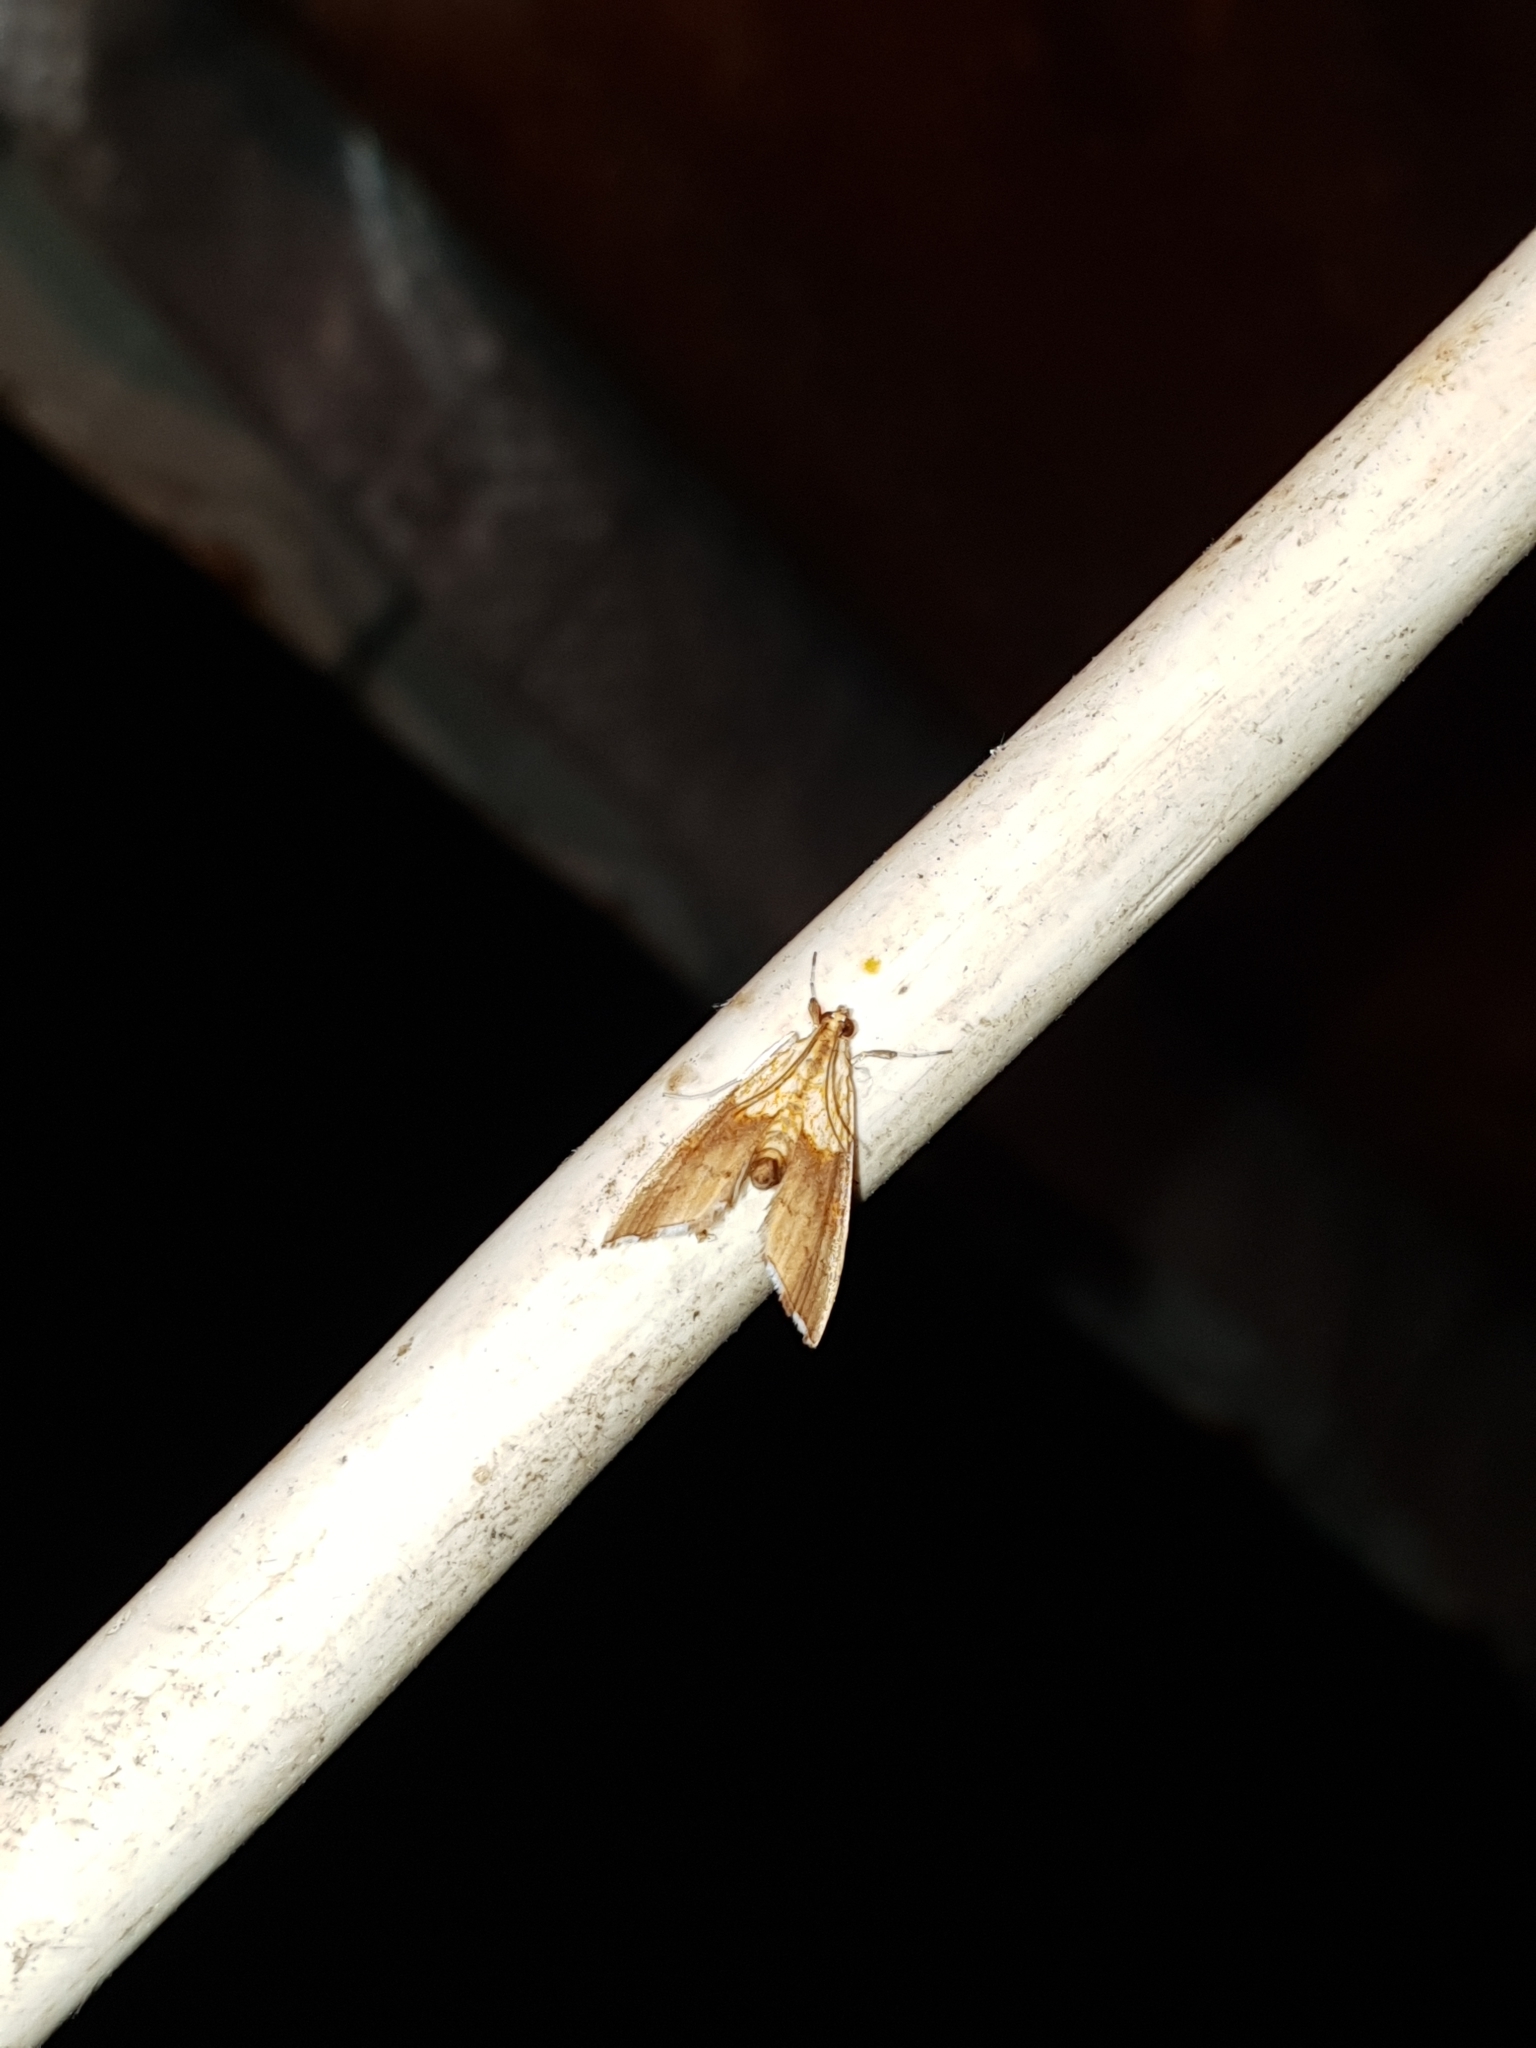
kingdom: Animalia
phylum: Arthropoda
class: Insecta
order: Lepidoptera
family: Crambidae
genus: Agrotera
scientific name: Agrotera nemoralis
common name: Beautiful pearl
